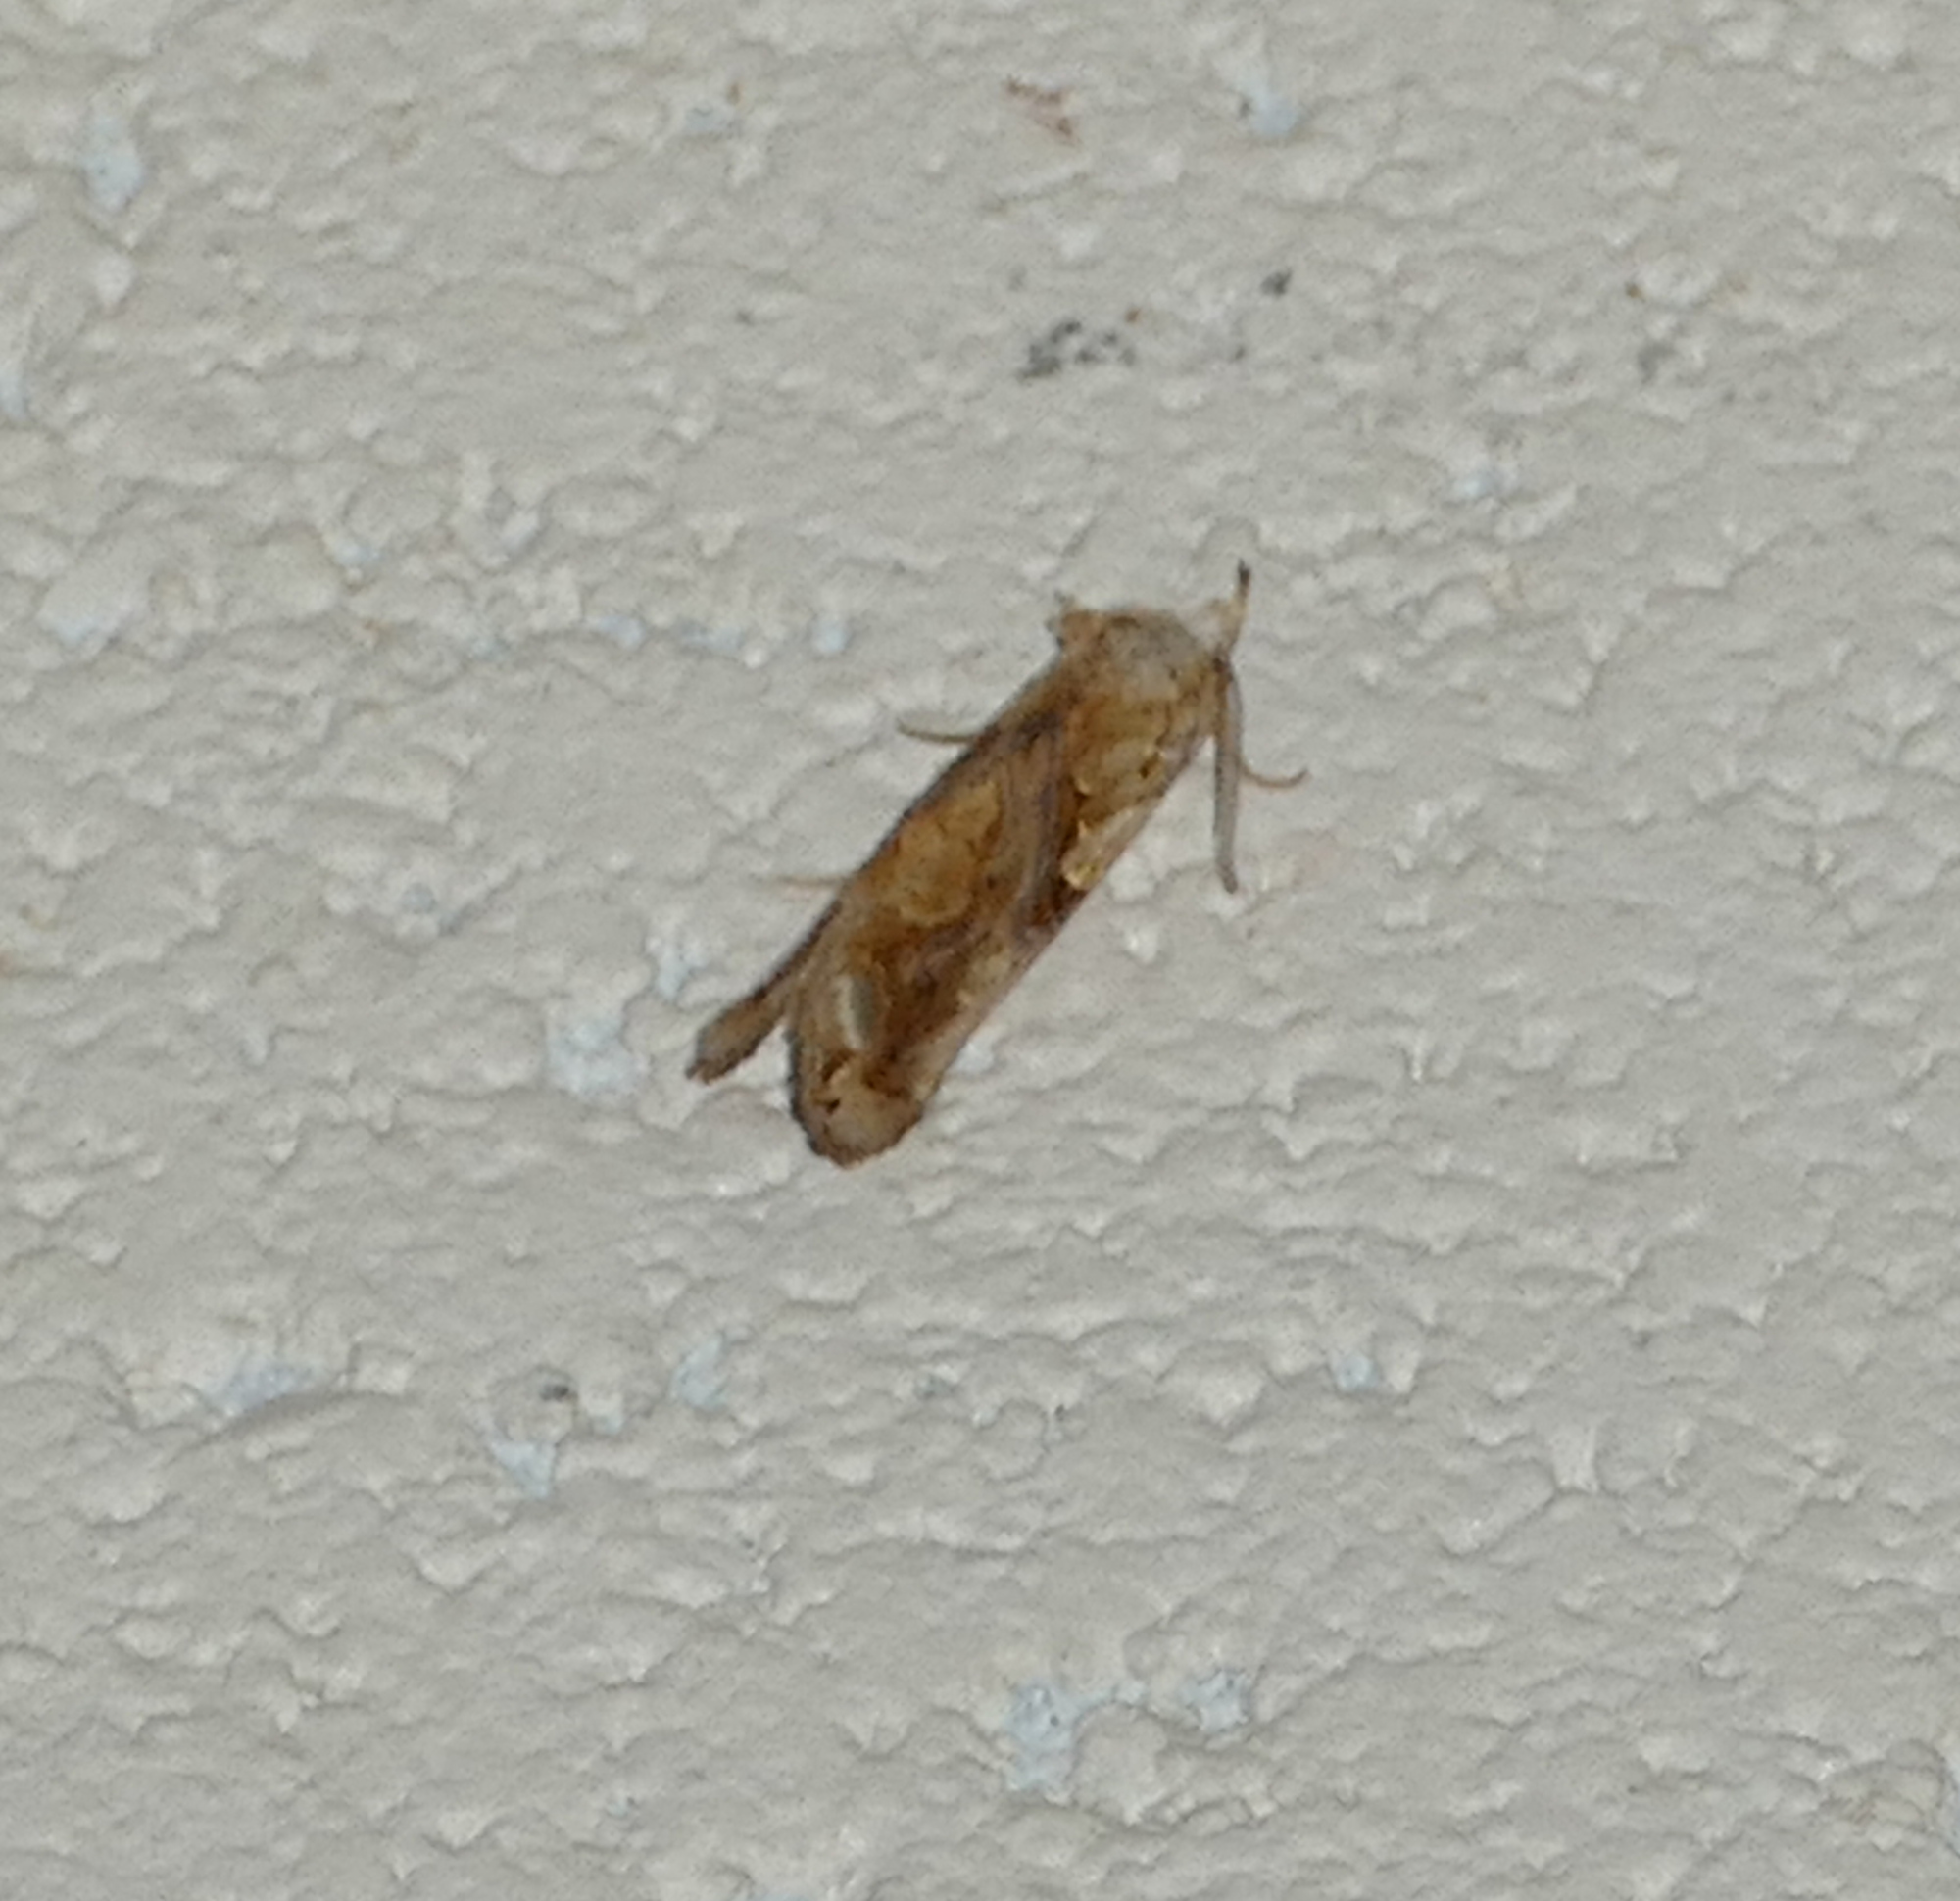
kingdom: Animalia
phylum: Arthropoda
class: Insecta
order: Lepidoptera
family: Erebidae
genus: Plusiodonta
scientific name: Plusiodonta compressipalpis
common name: Moonseed moth
